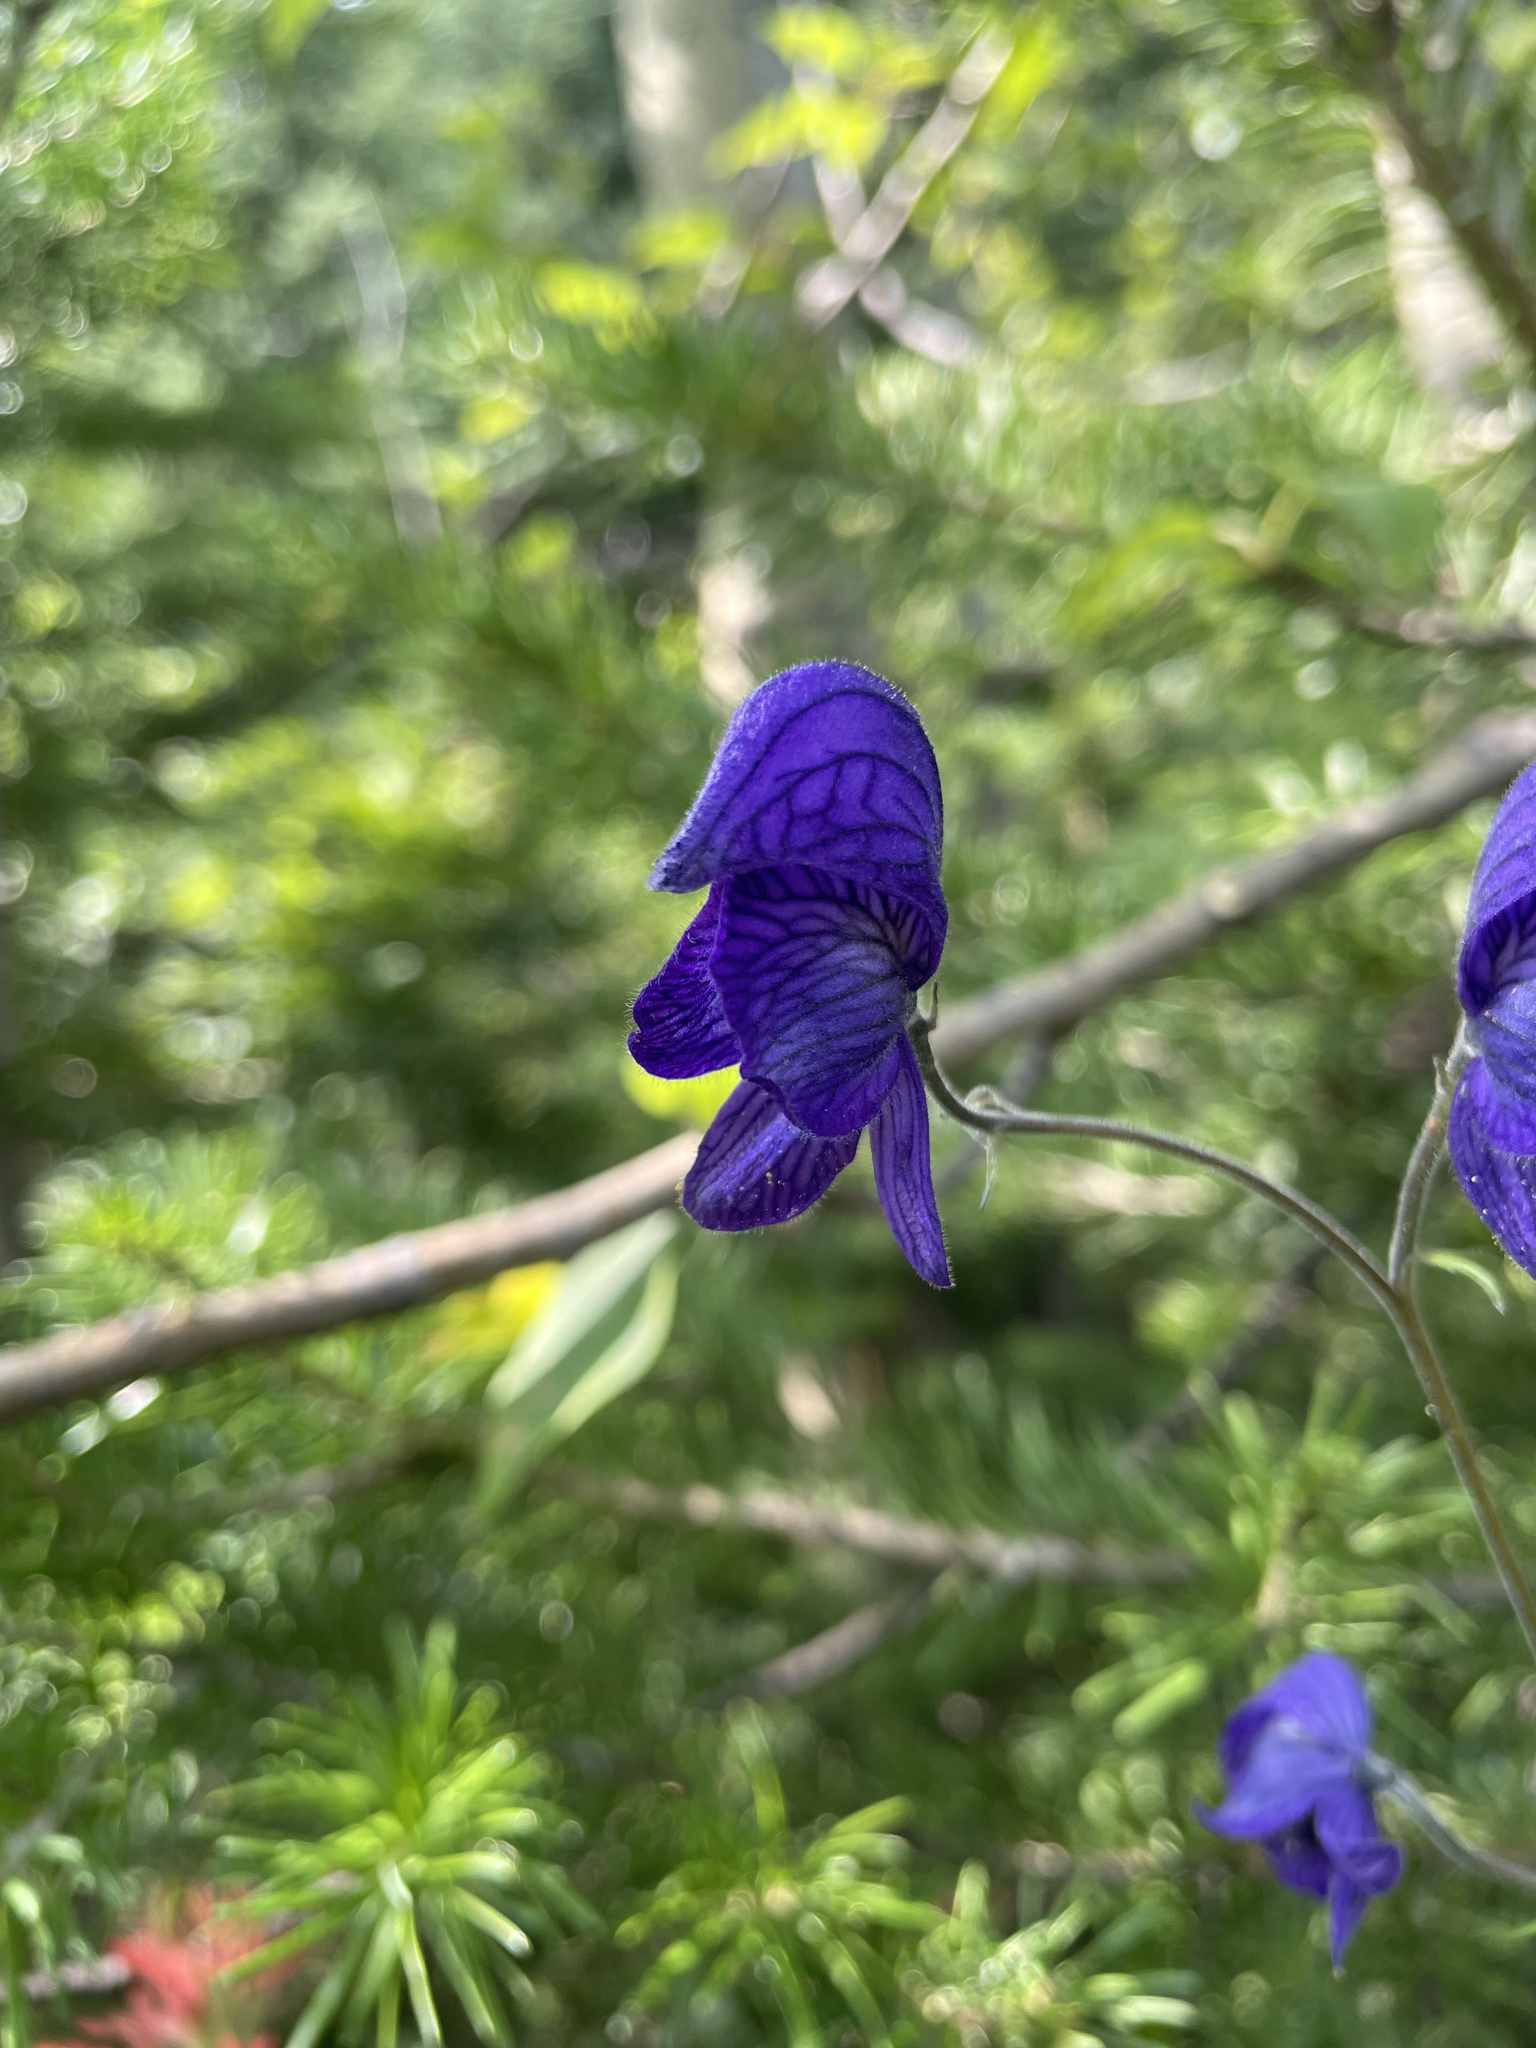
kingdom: Plantae
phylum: Tracheophyta
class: Magnoliopsida
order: Ranunculales
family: Ranunculaceae
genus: Aconitum
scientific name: Aconitum delphiniifolium
